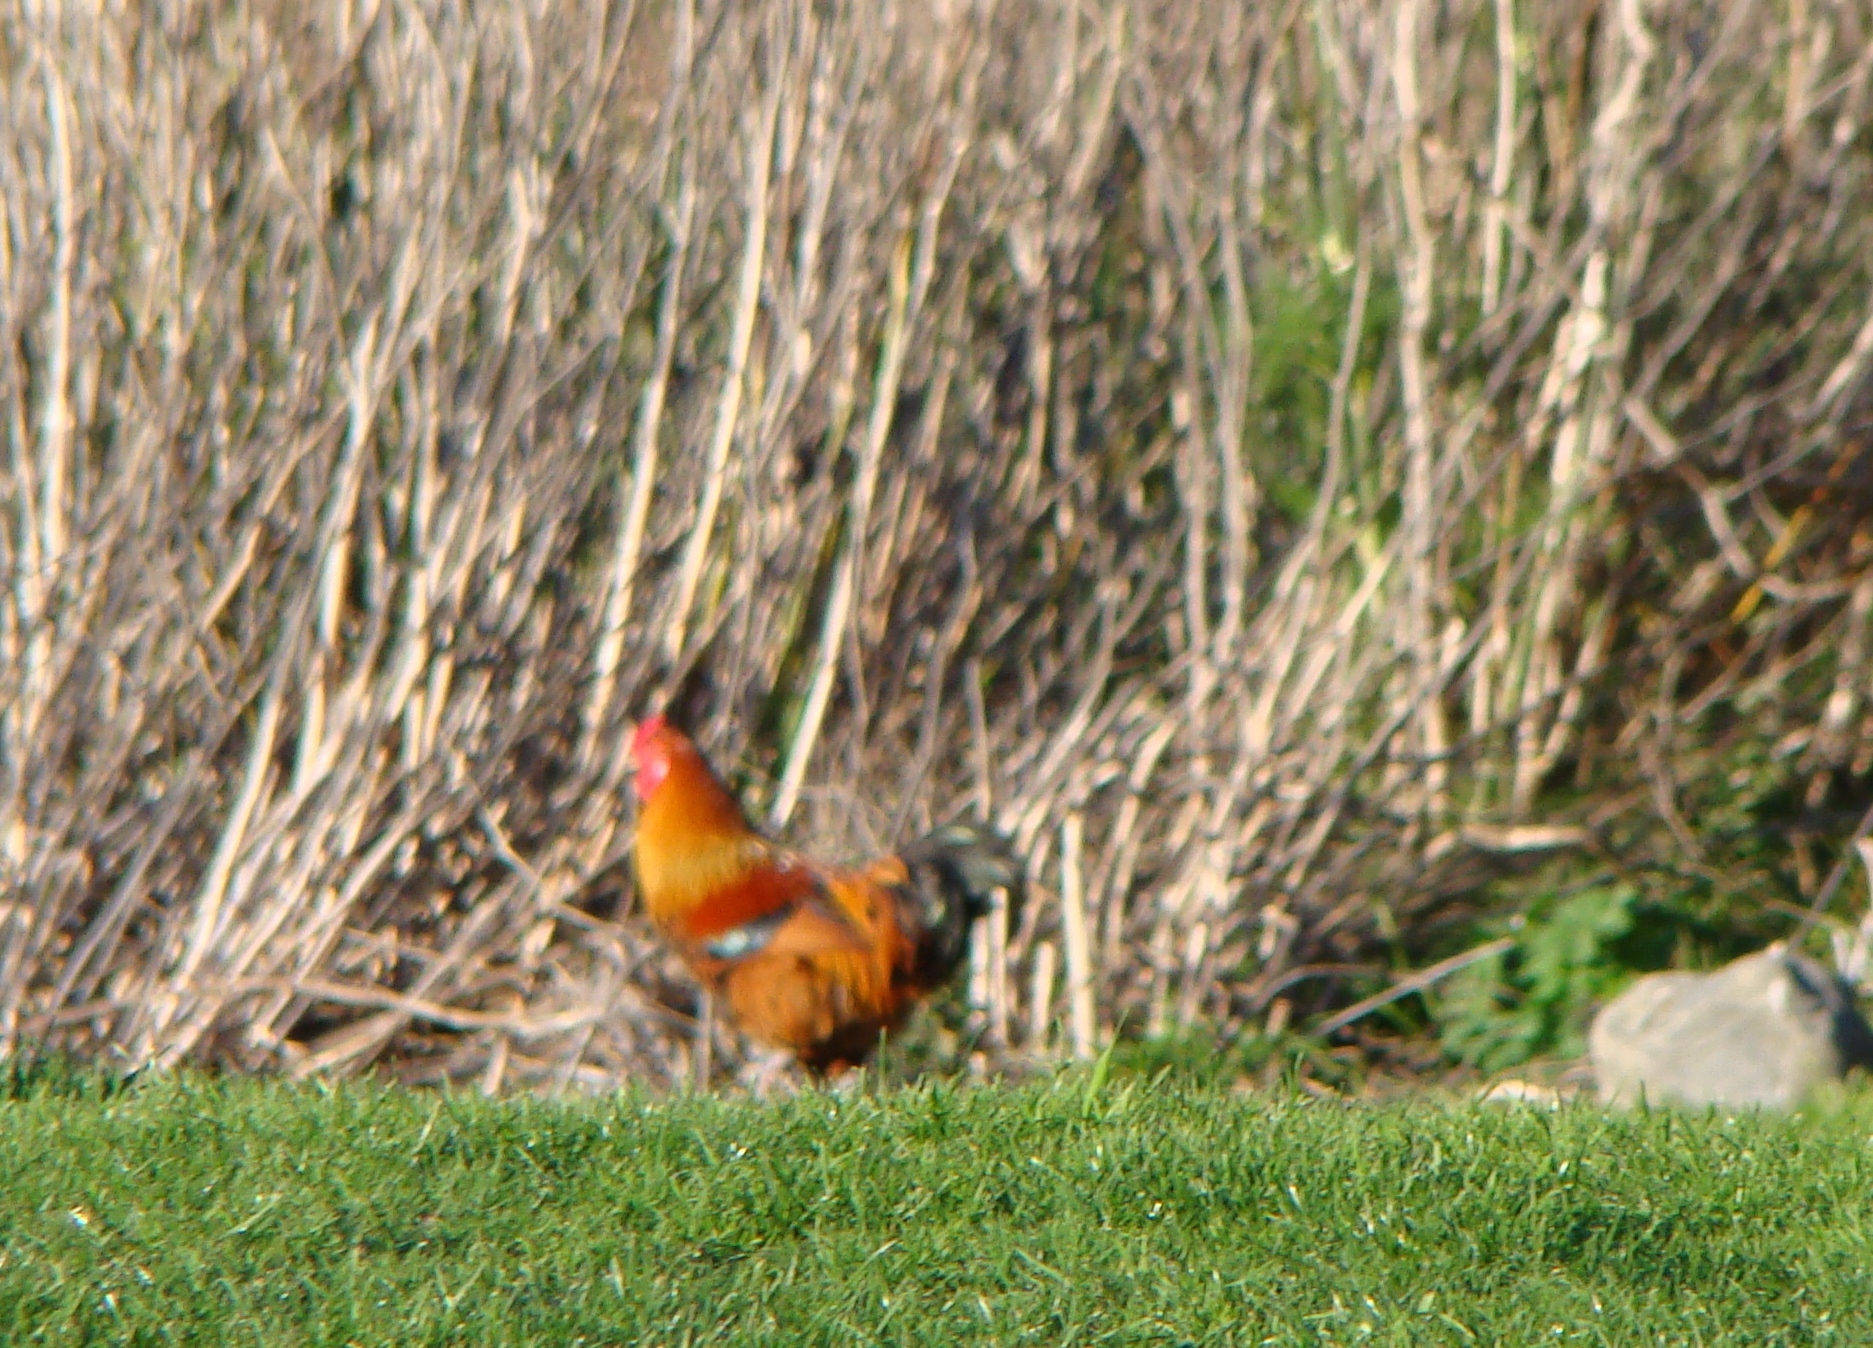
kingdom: Animalia
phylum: Chordata
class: Aves
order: Galliformes
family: Phasianidae
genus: Gallus
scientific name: Gallus gallus
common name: Red junglefowl
